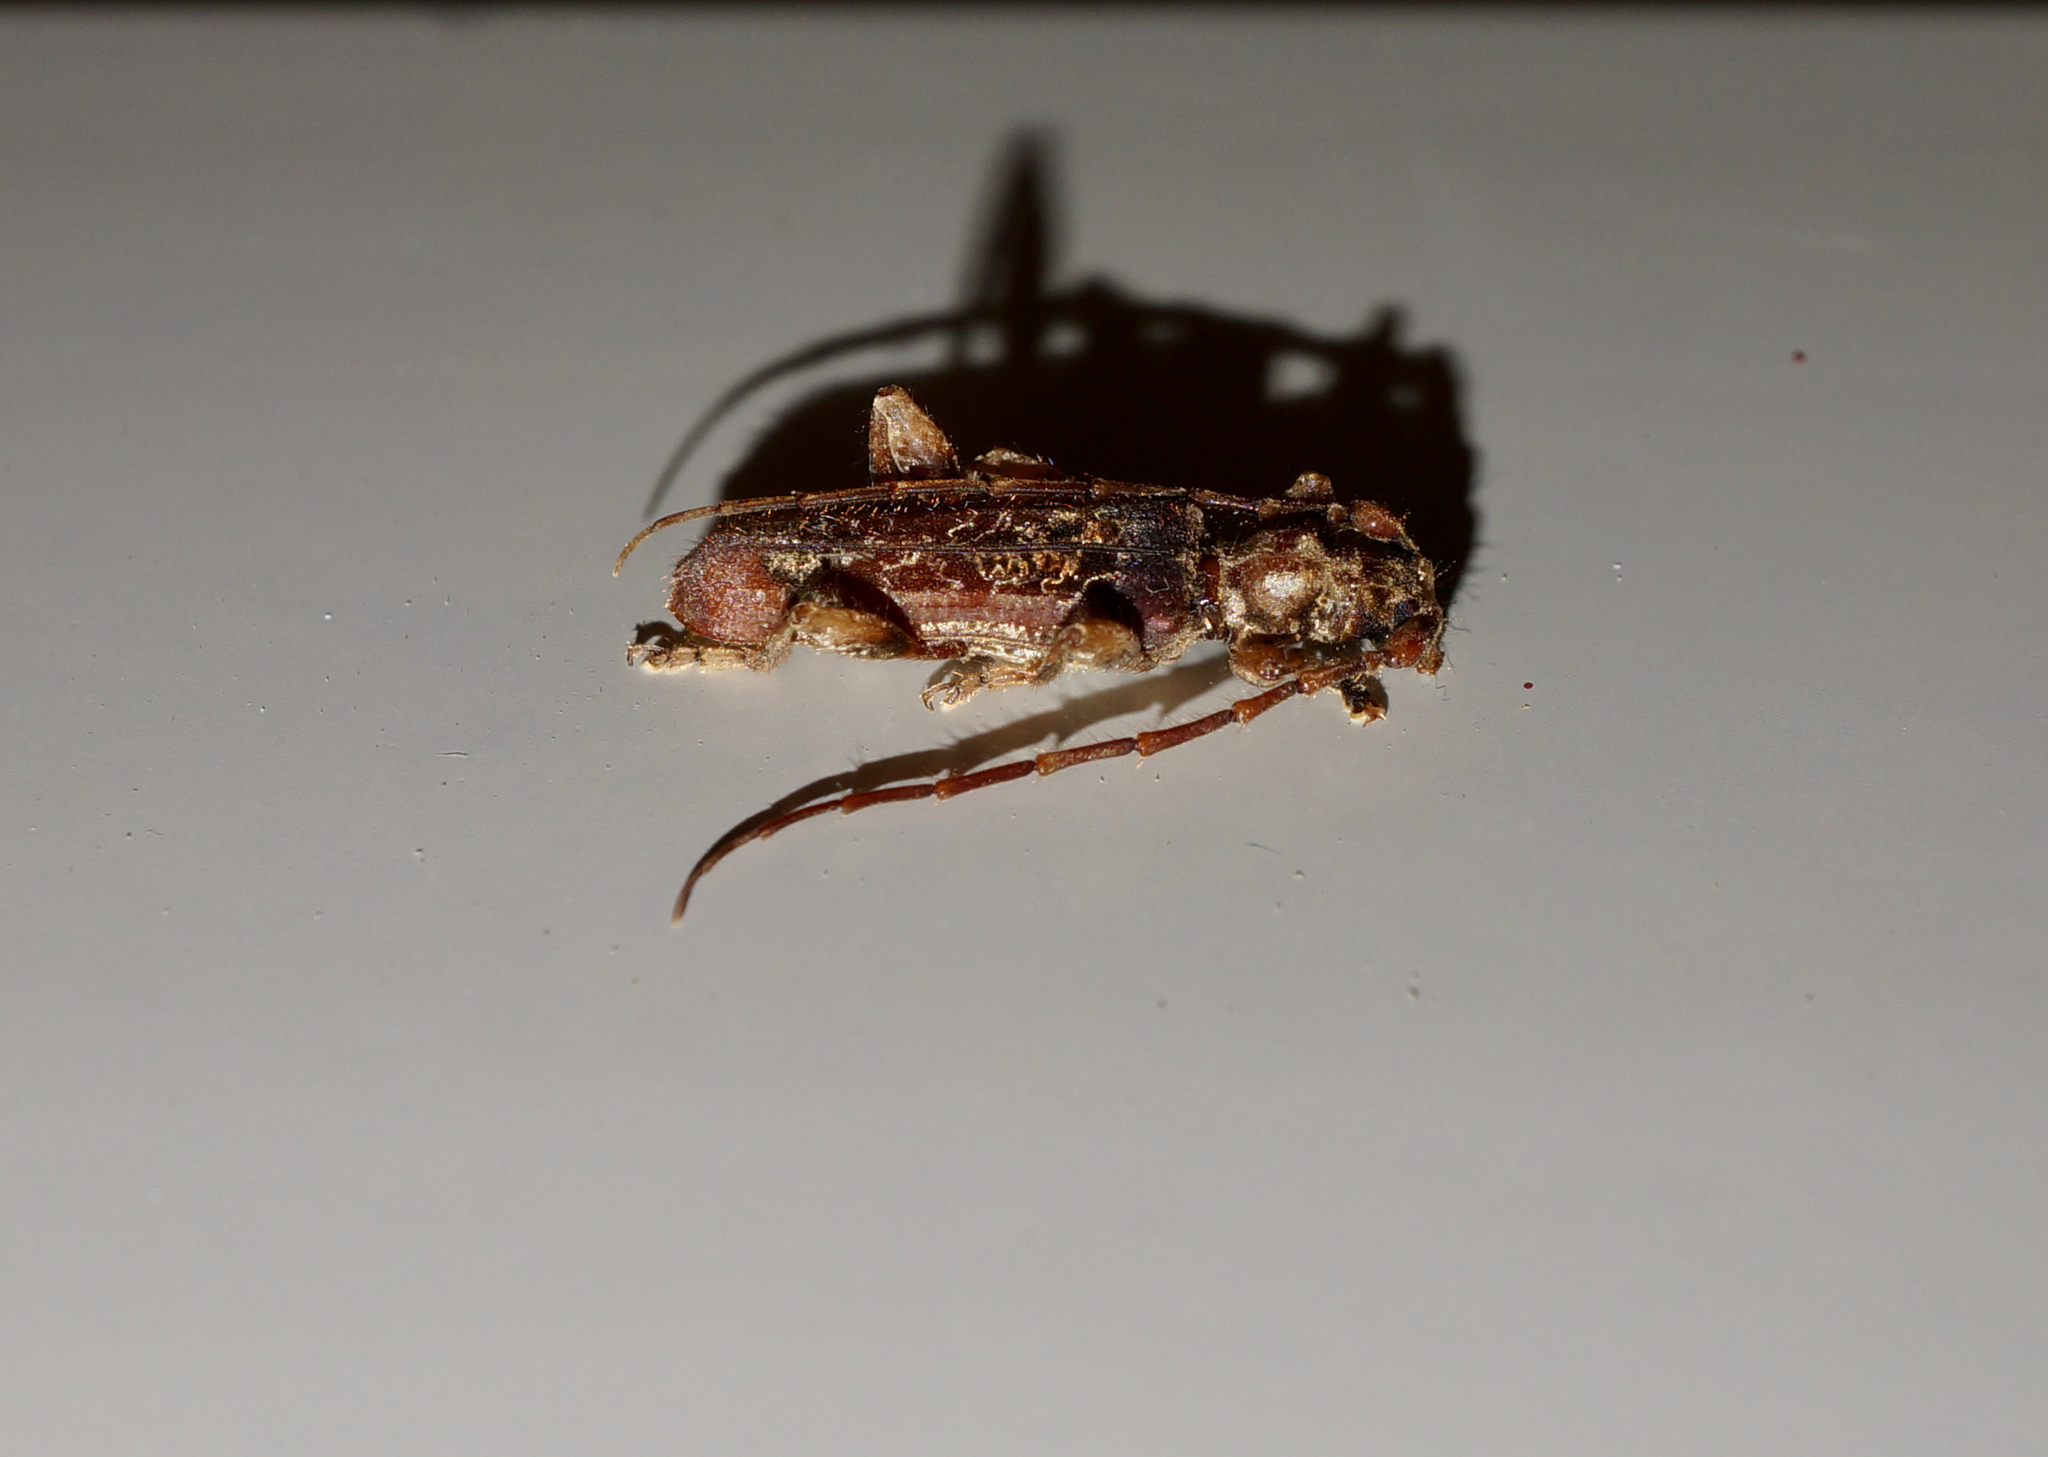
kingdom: Animalia
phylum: Arthropoda
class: Insecta
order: Coleoptera
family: Cerambycidae
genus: Tessaromma
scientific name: Tessaromma undatum
